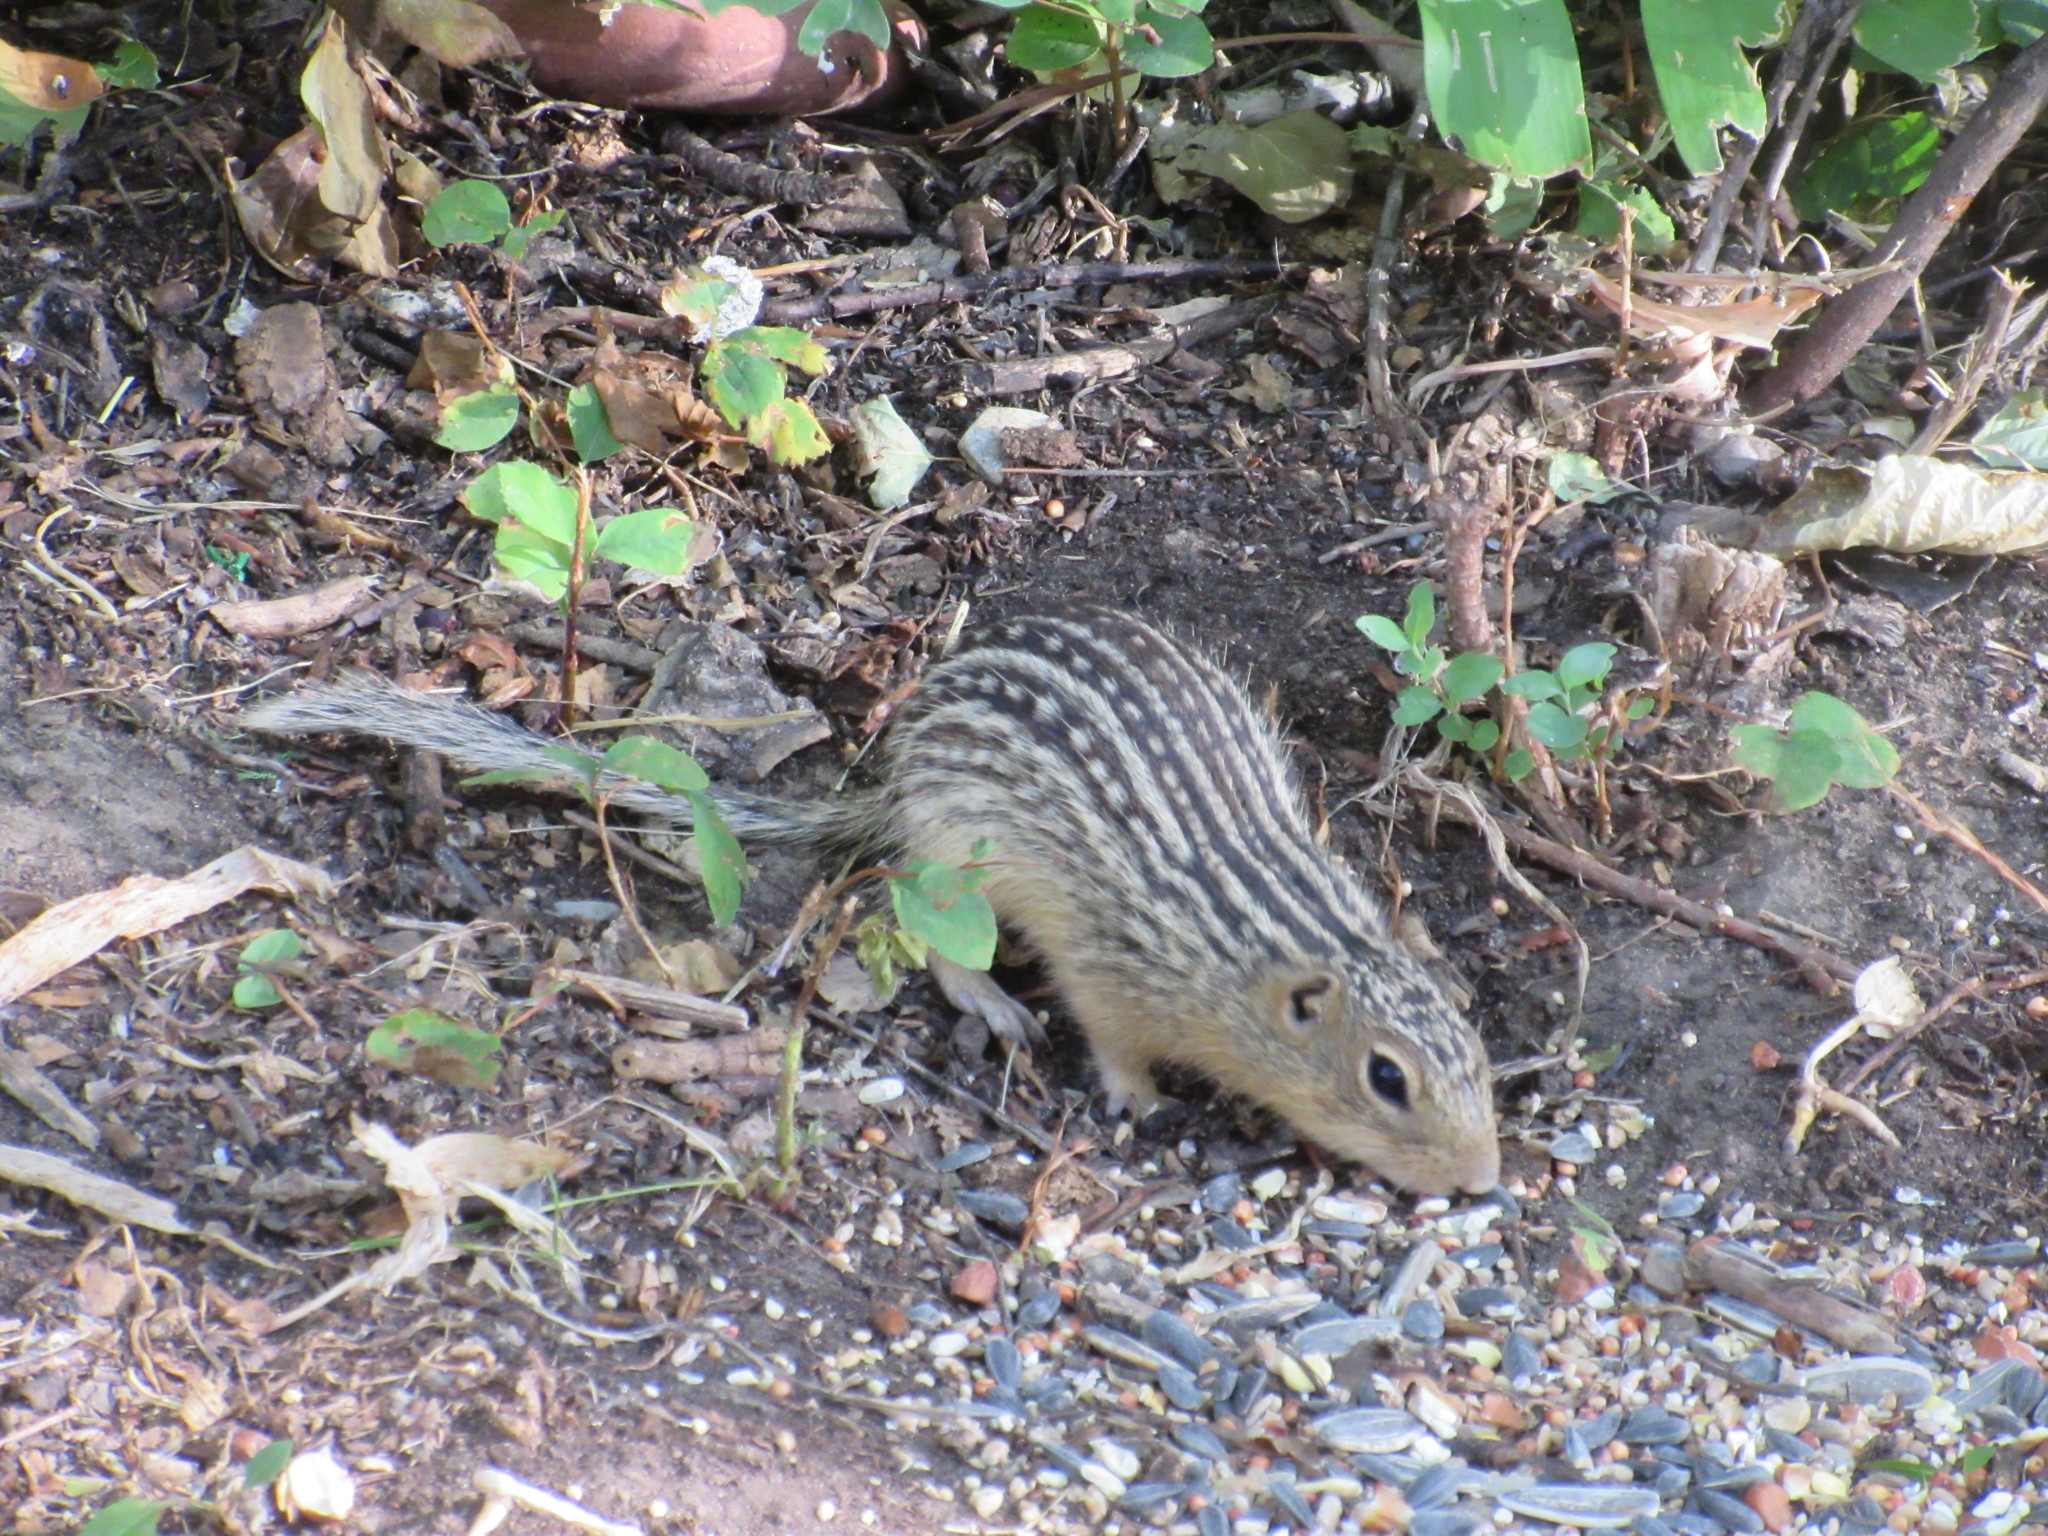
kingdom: Animalia
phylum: Chordata
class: Mammalia
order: Rodentia
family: Sciuridae
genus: Ictidomys
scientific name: Ictidomys tridecemlineatus
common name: Thirteen-lined ground squirrel
